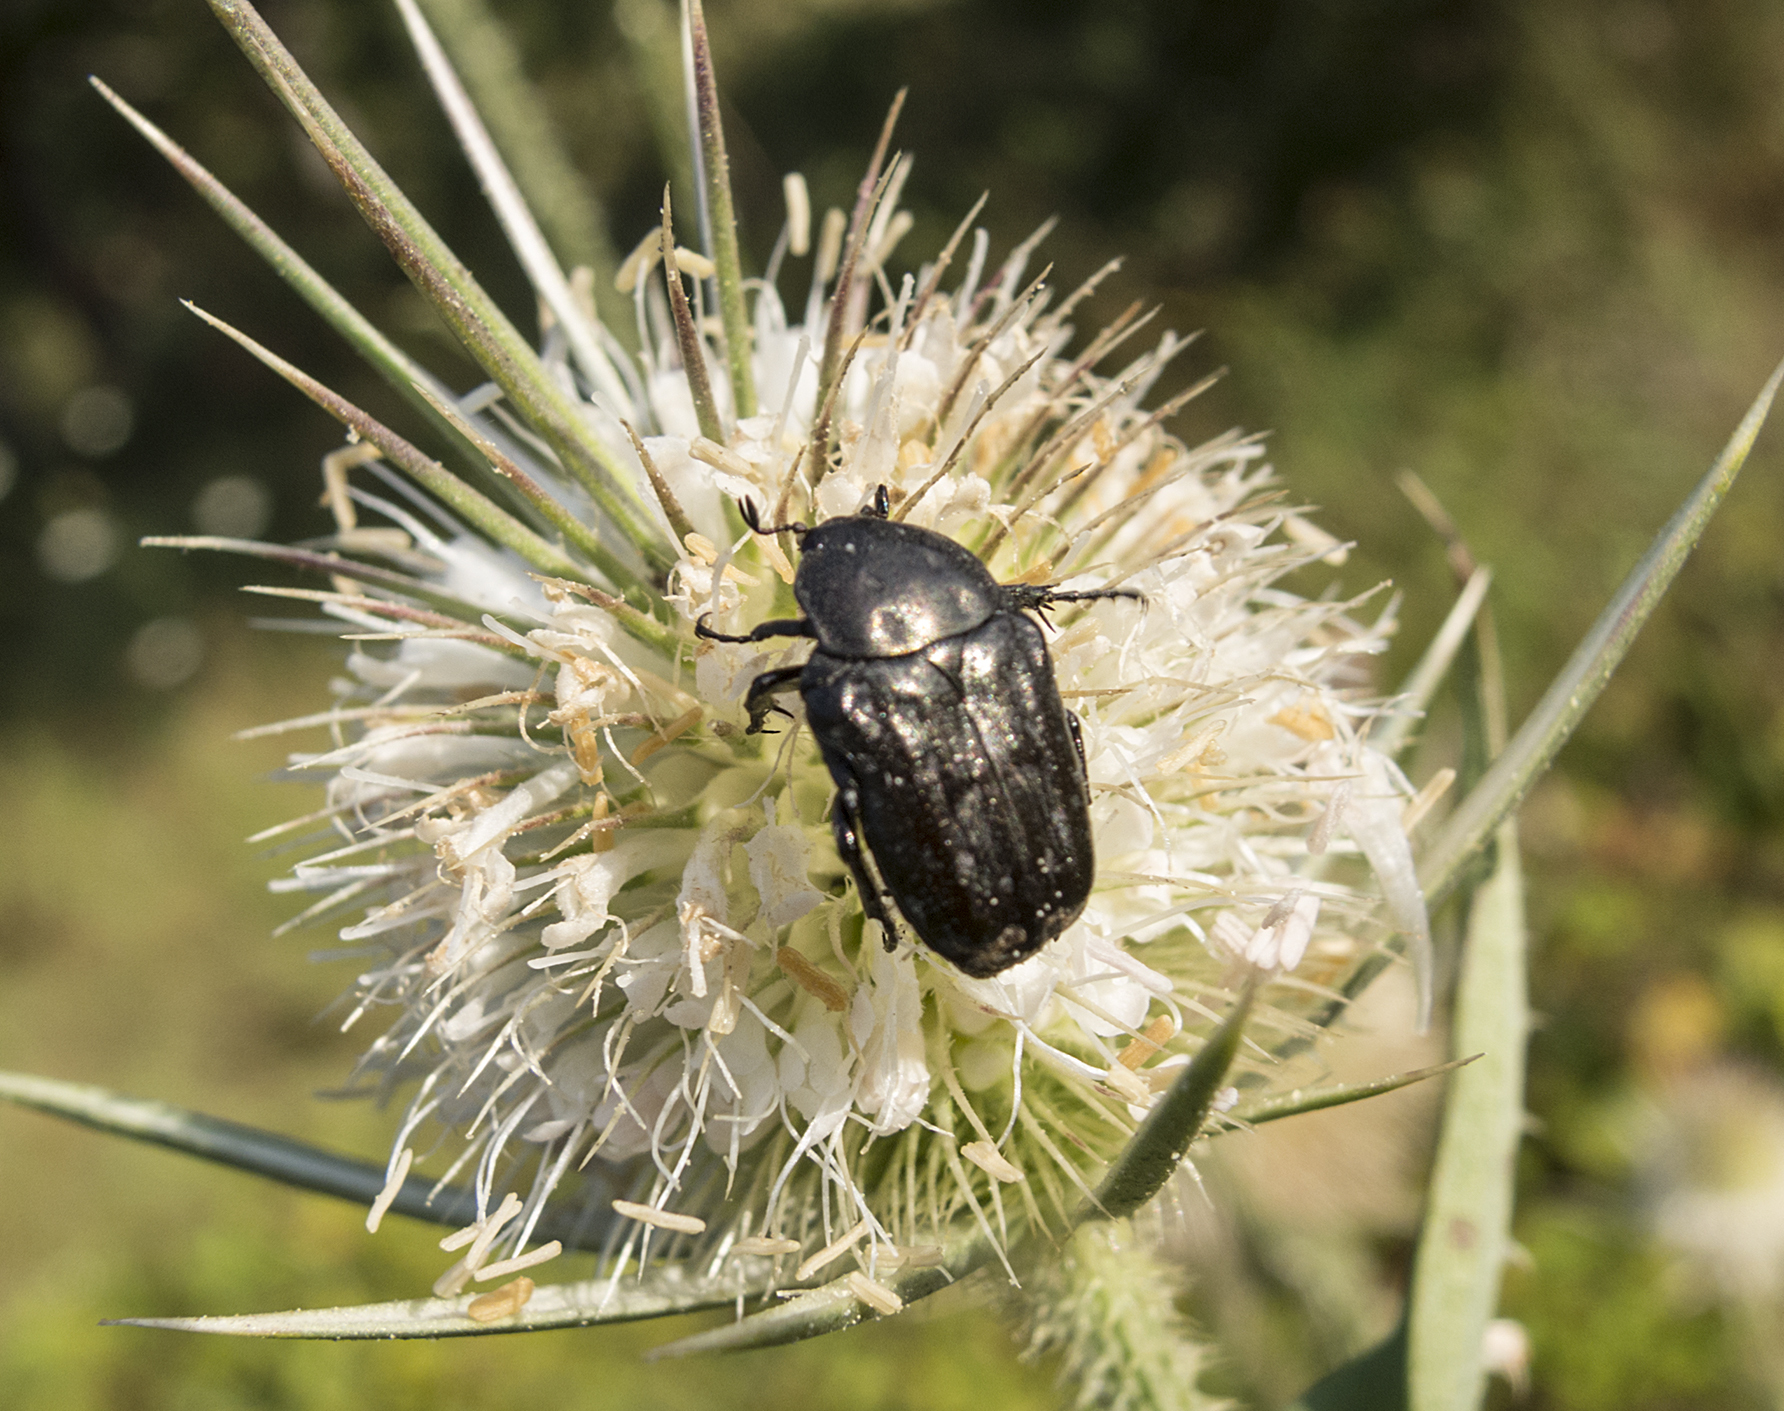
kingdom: Animalia
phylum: Arthropoda
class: Insecta
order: Coleoptera
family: Scarabaeidae
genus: Oxythyrea
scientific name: Oxythyrea funesta
